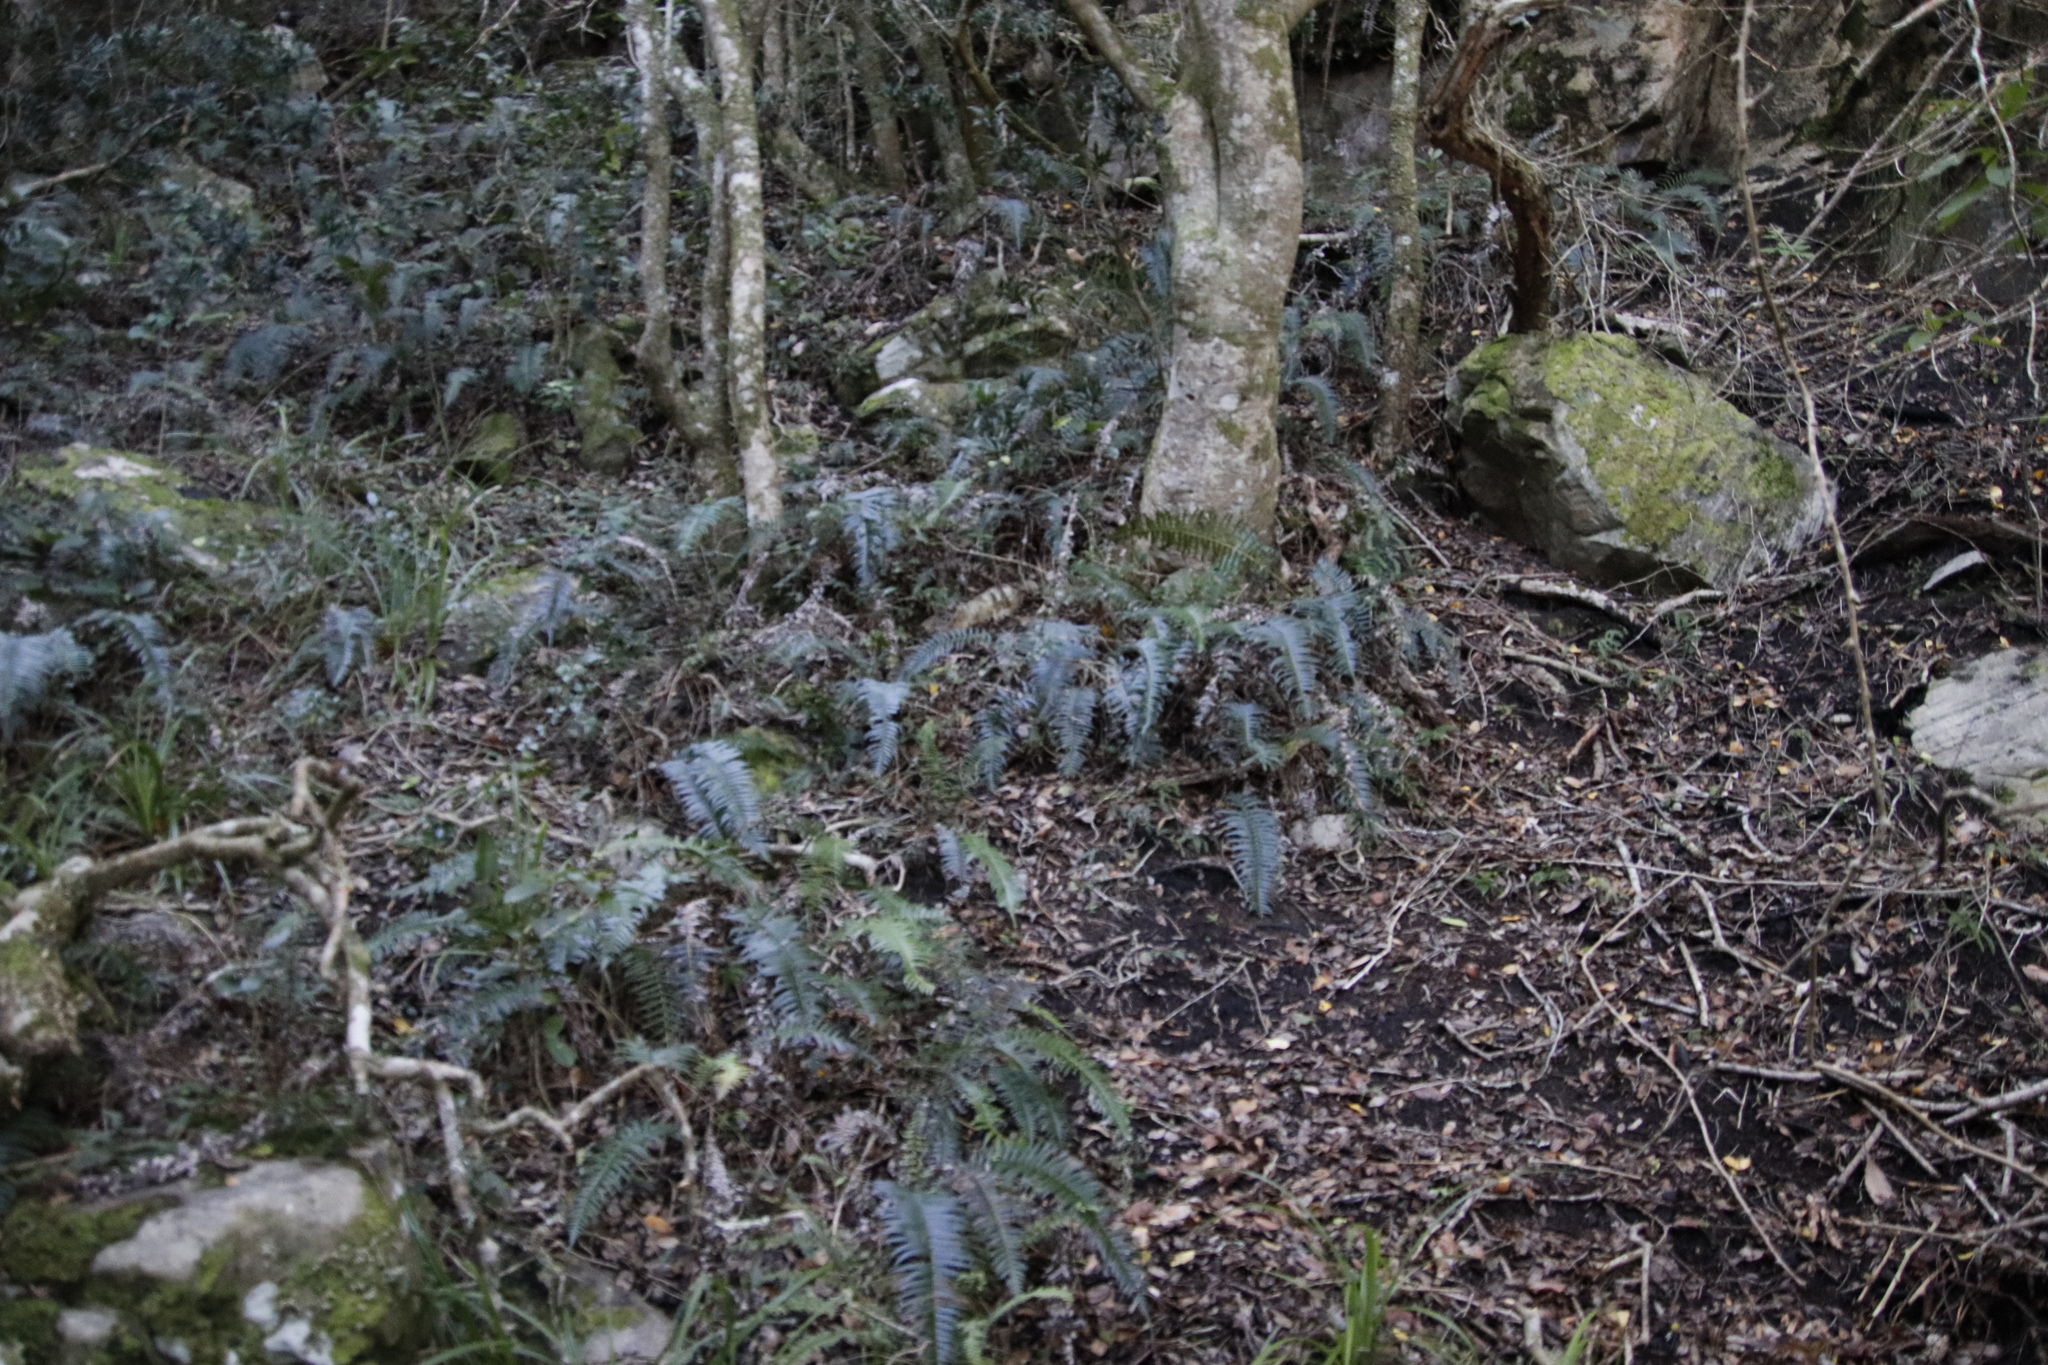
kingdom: Plantae
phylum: Tracheophyta
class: Polypodiopsida
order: Polypodiales
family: Blechnaceae
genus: Blechnum
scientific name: Blechnum punctulatum
